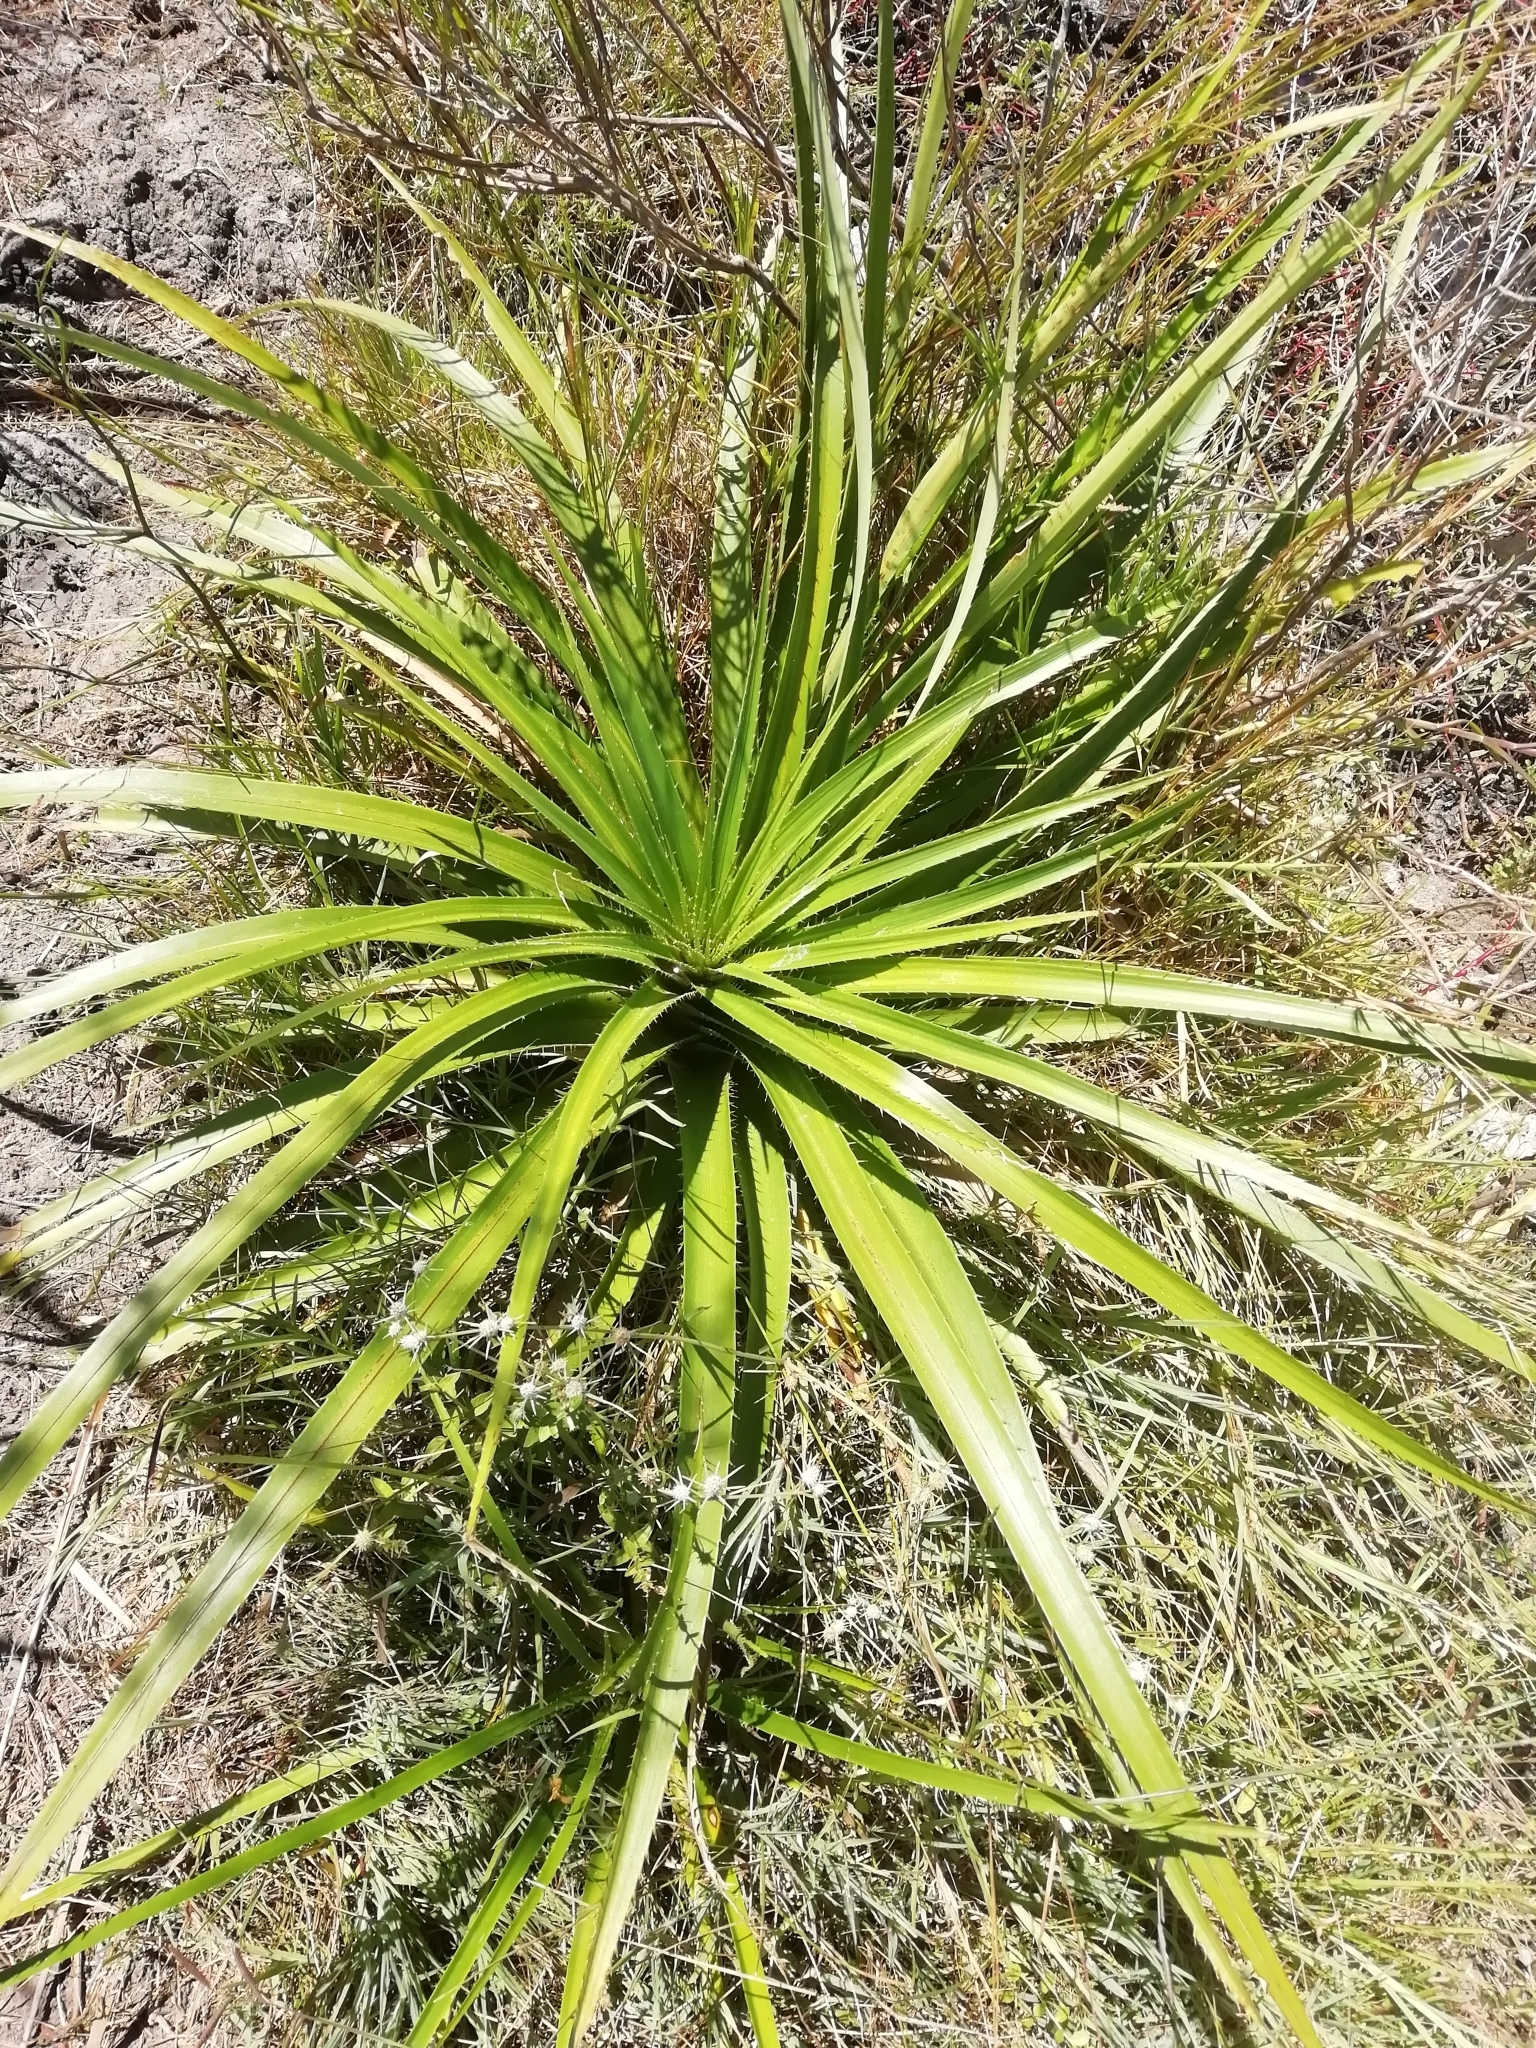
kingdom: Plantae
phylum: Tracheophyta
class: Magnoliopsida
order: Apiales
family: Apiaceae
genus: Eryngium
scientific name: Eryngium eburneum
